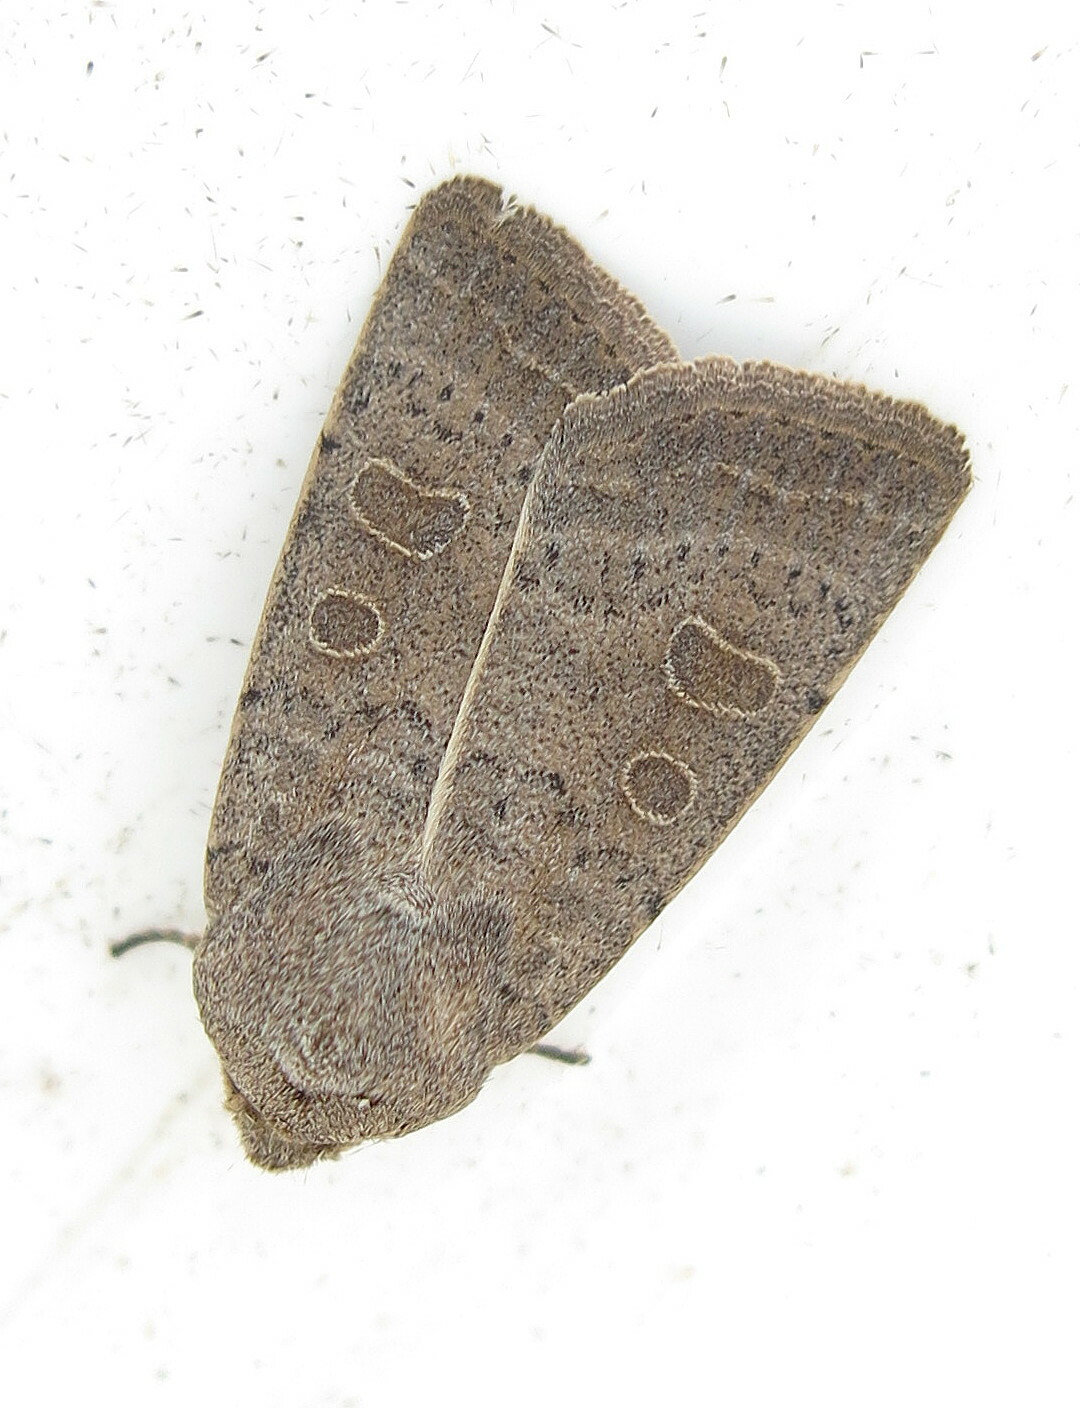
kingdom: Animalia
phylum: Arthropoda
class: Insecta
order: Lepidoptera
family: Noctuidae
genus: Hoplodrina
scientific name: Hoplodrina ambigua
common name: Vine's rustic
